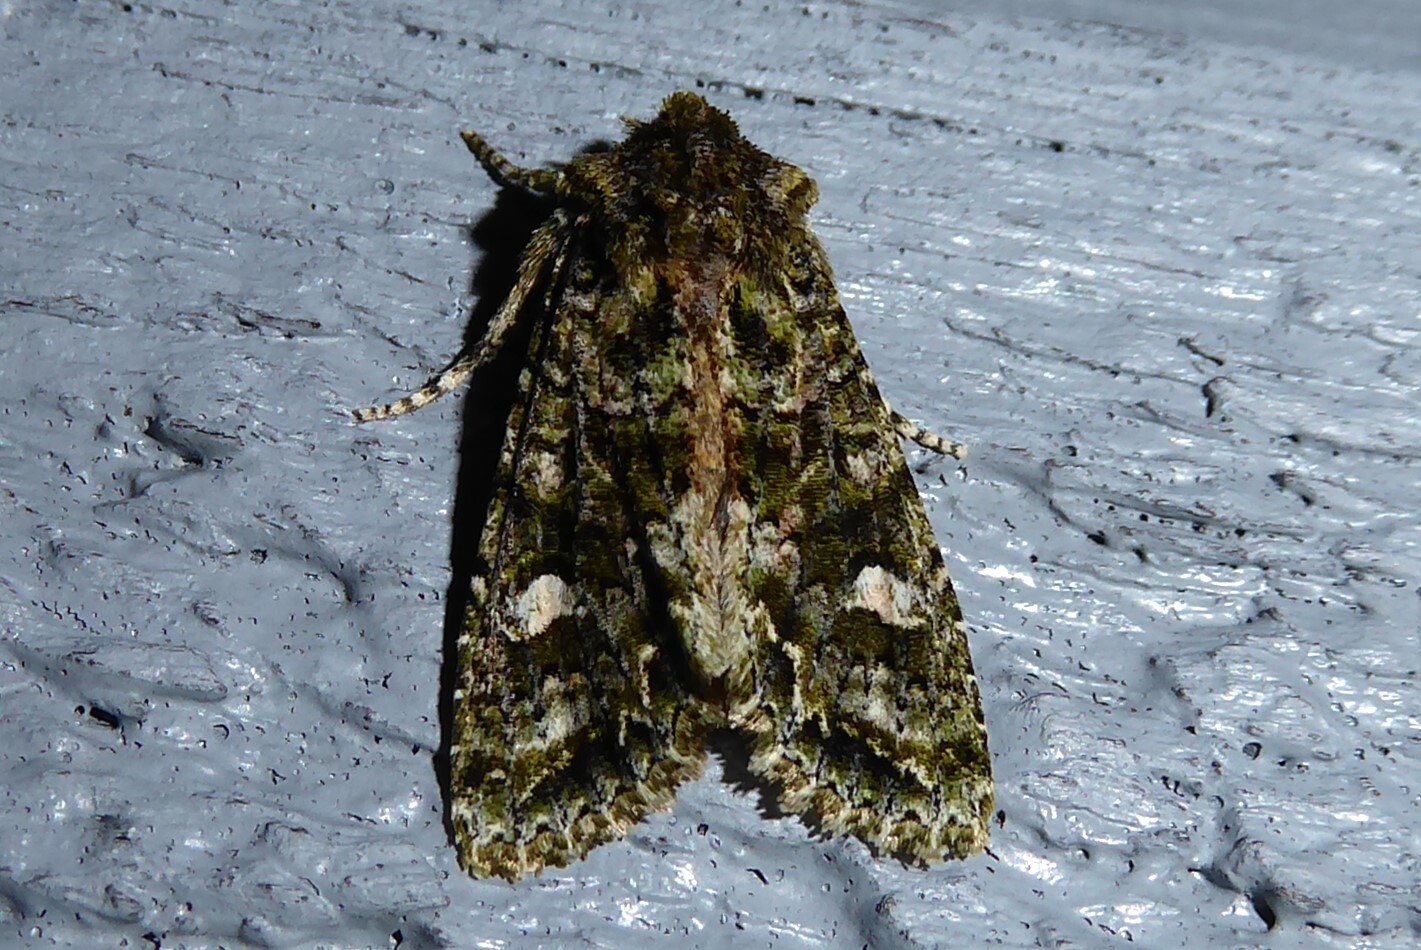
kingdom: Animalia
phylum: Arthropoda
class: Insecta
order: Lepidoptera
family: Noctuidae
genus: Ichneutica
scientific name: Ichneutica
